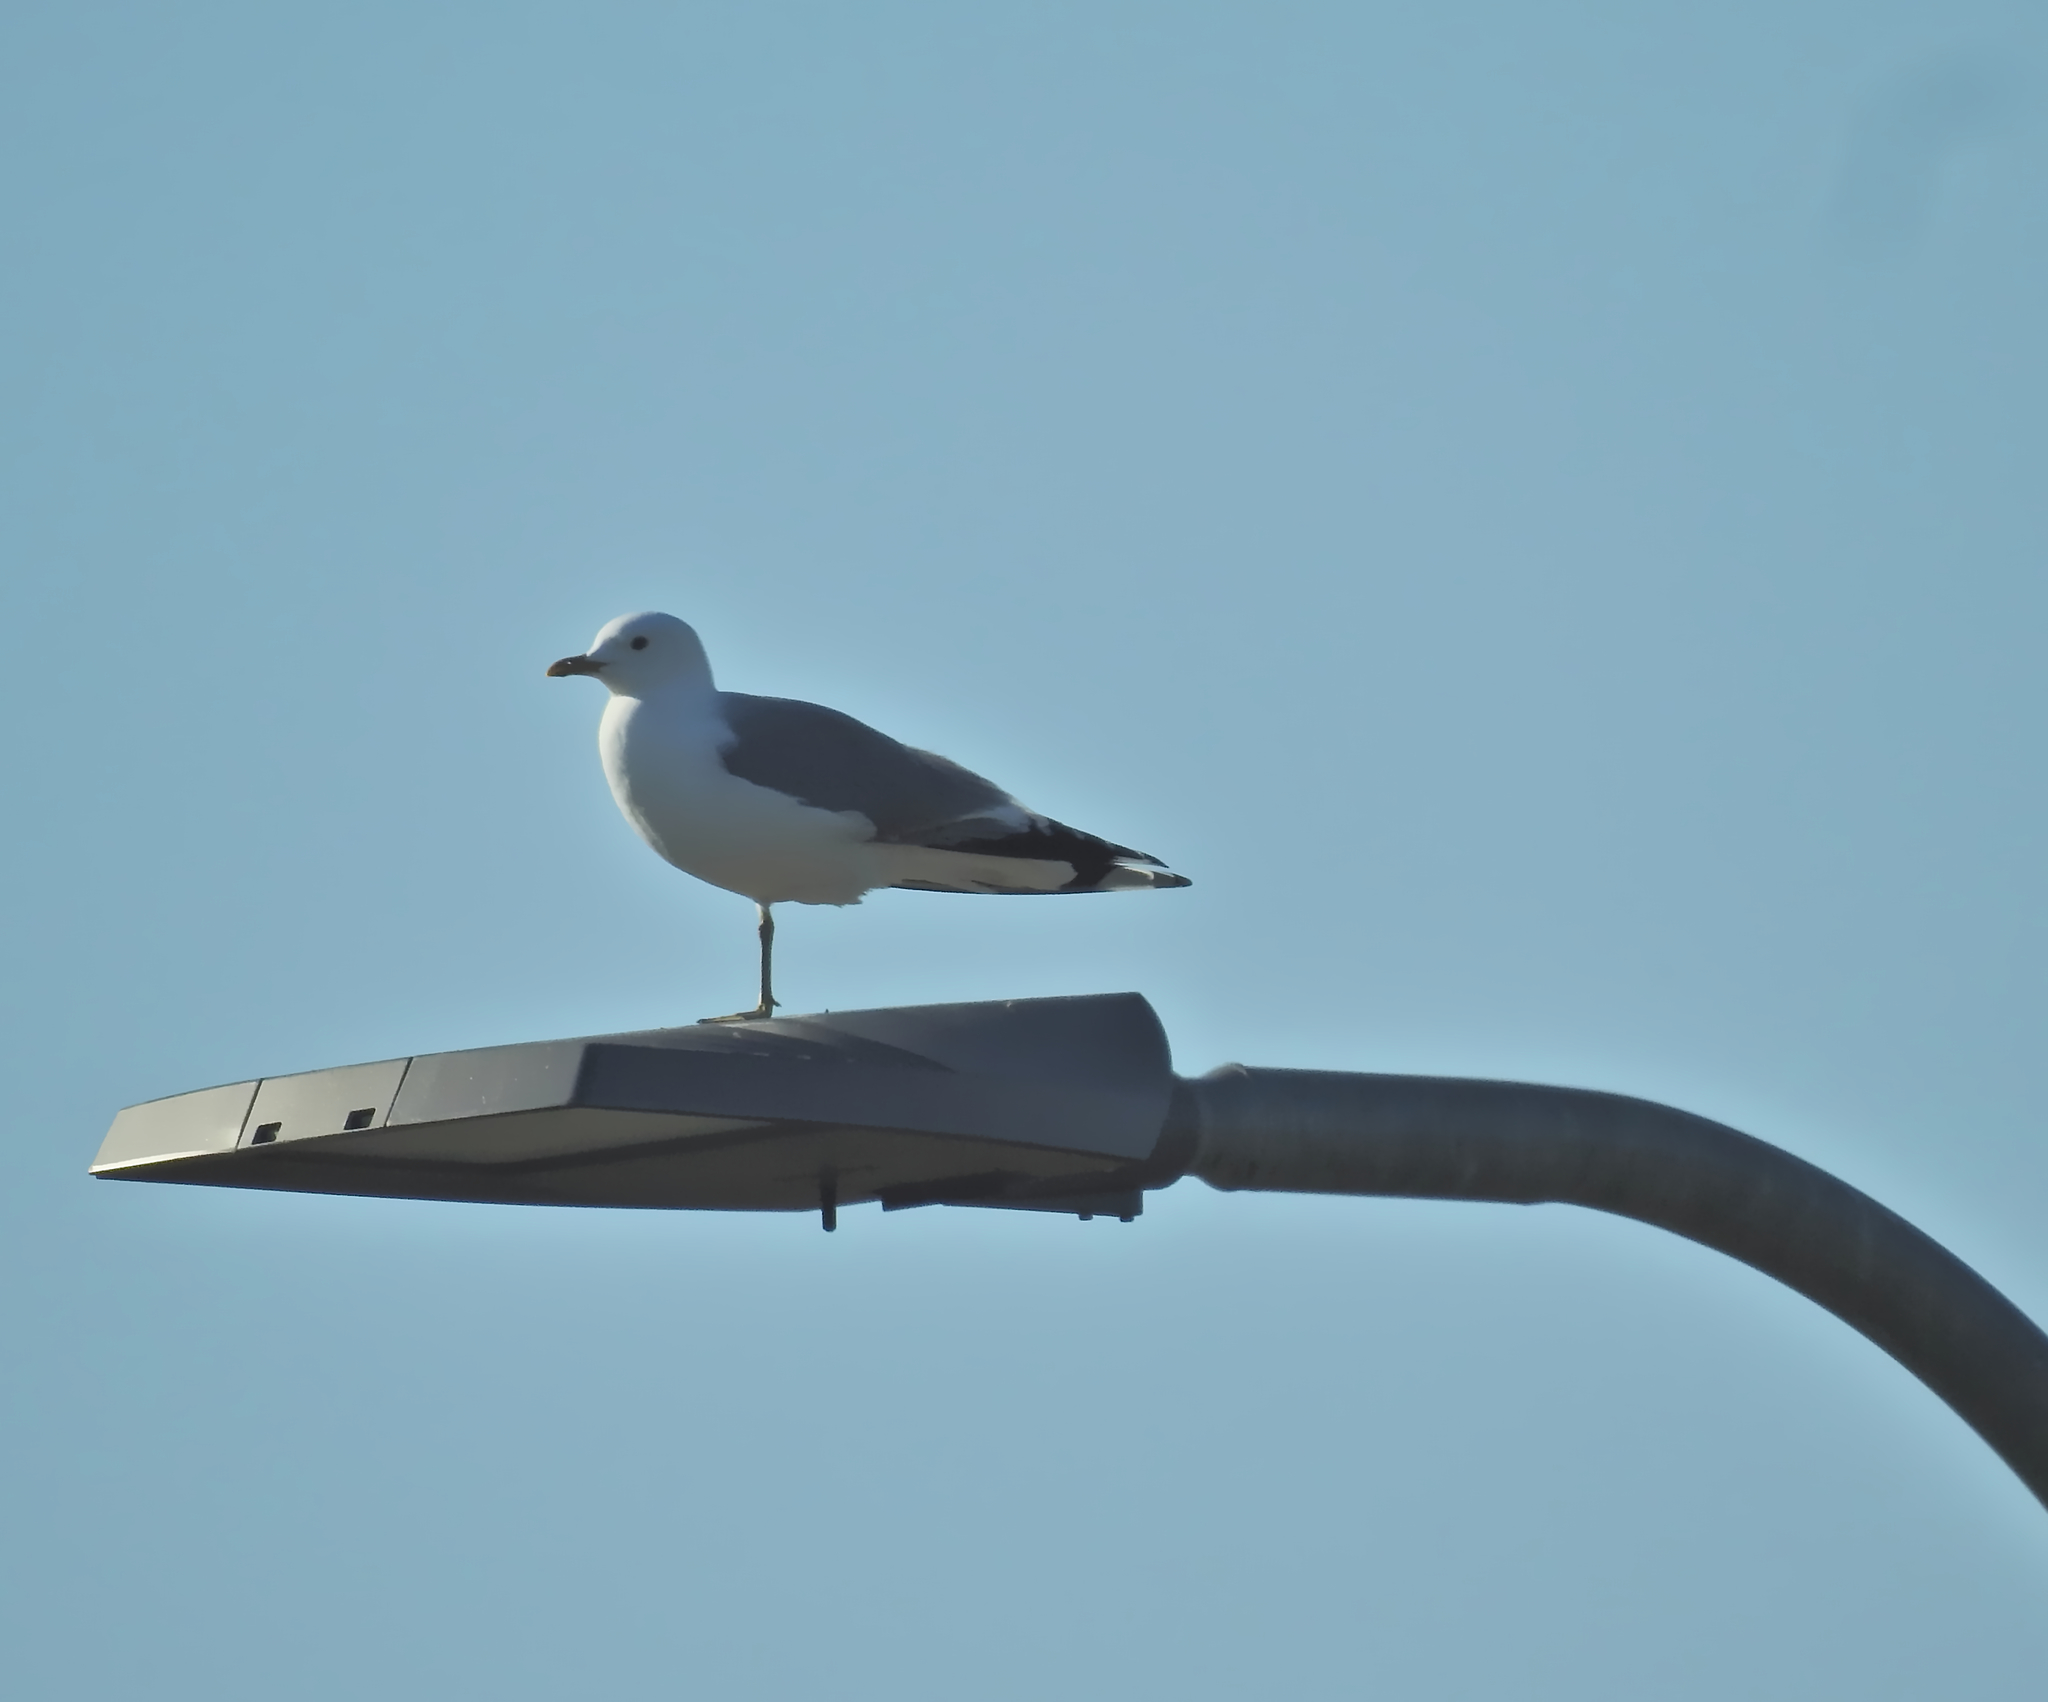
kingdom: Animalia
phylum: Chordata
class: Aves
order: Charadriiformes
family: Laridae
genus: Larus
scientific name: Larus canus
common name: Mew gull
